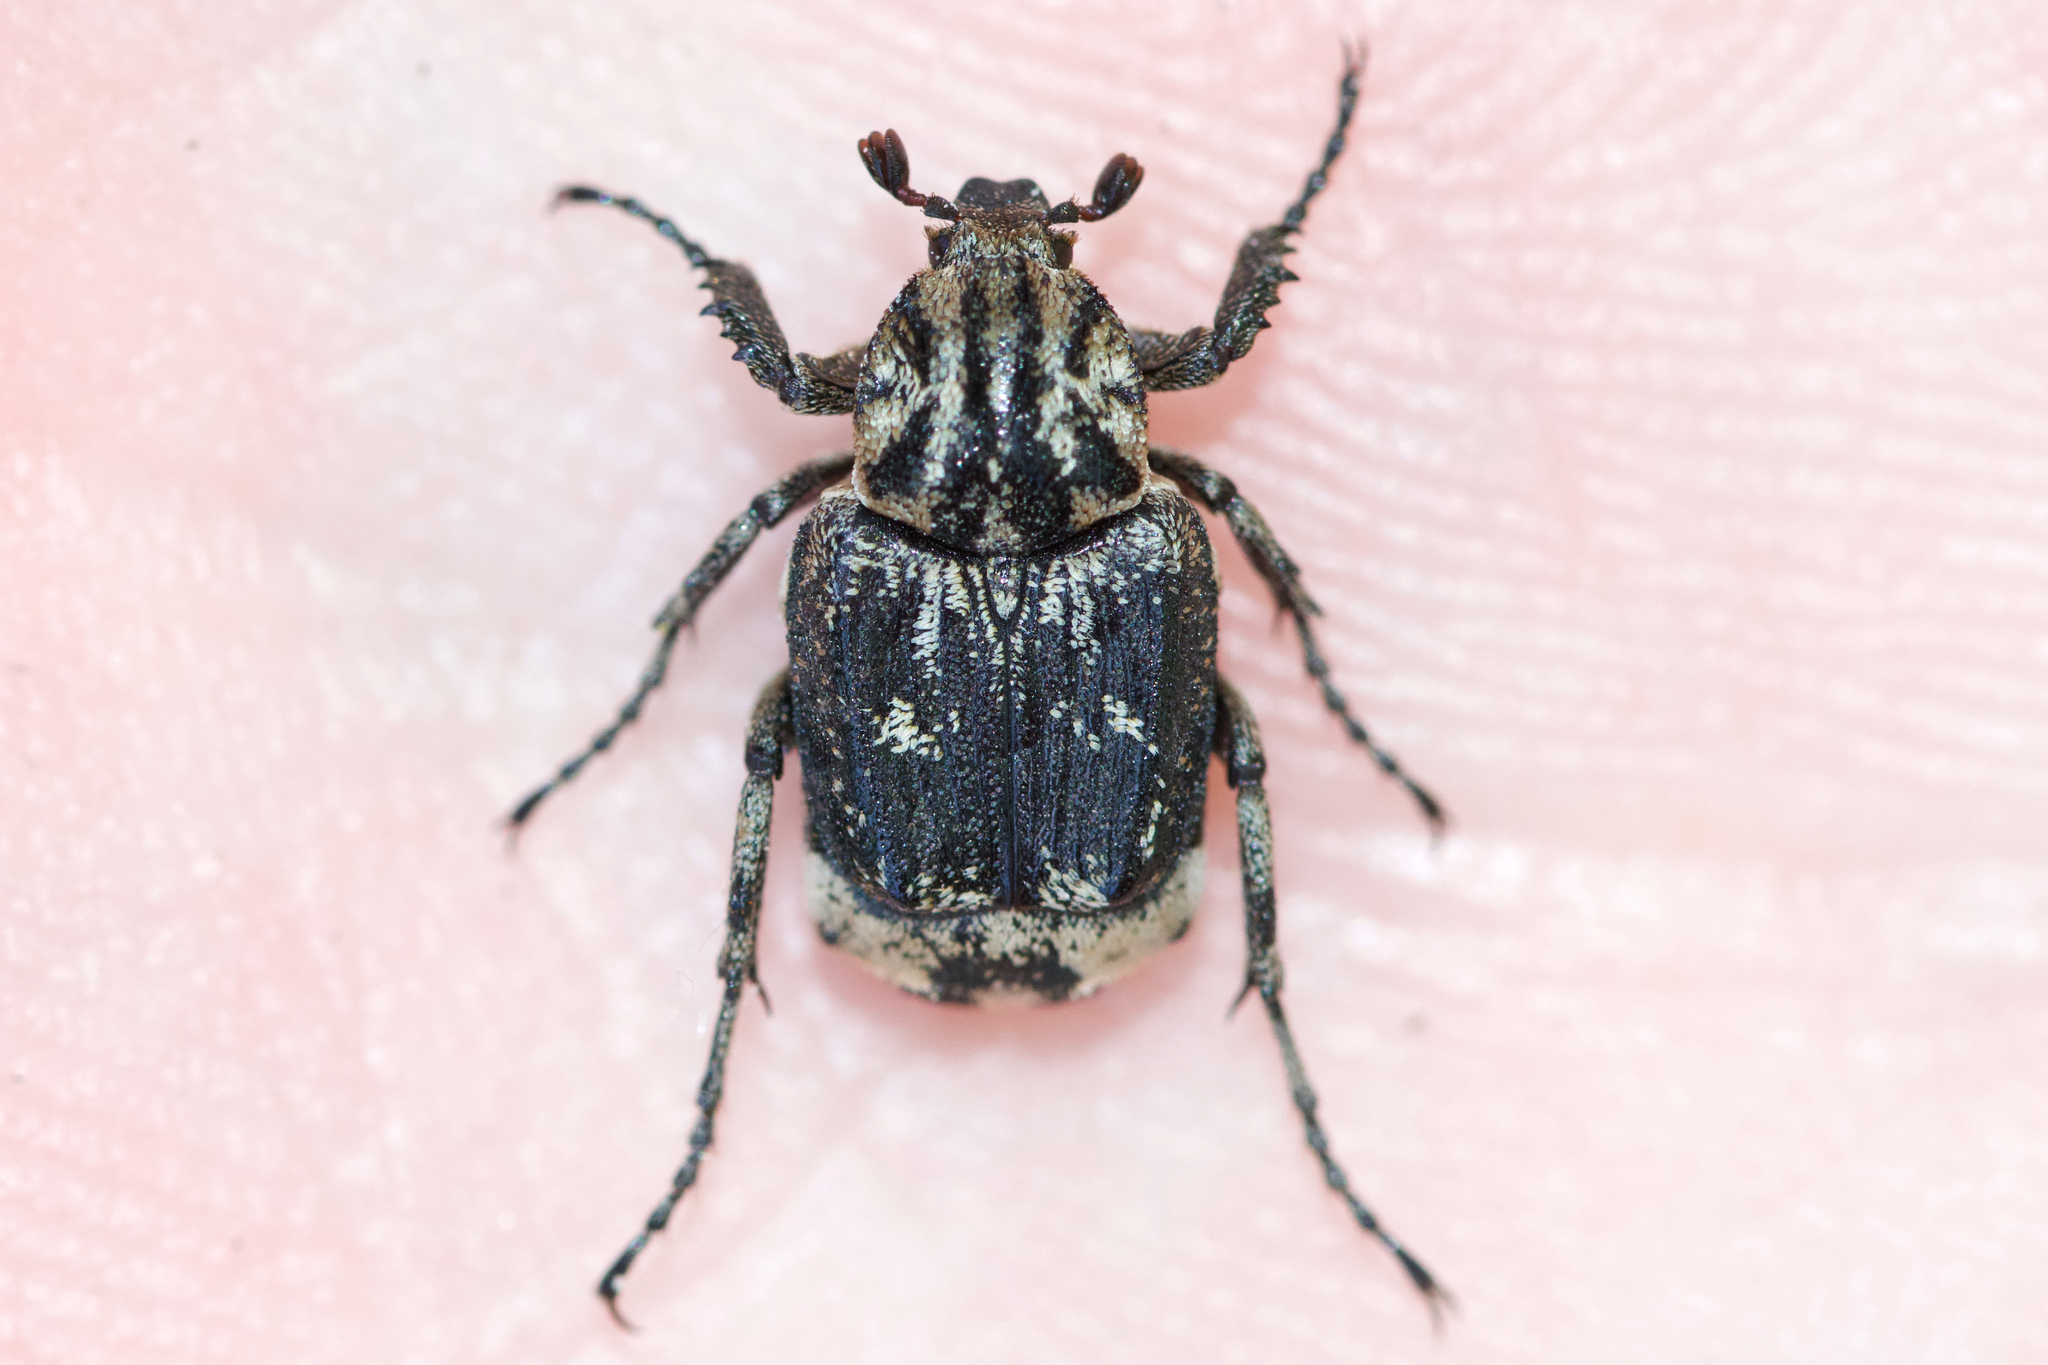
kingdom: Animalia
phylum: Arthropoda
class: Insecta
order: Coleoptera
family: Scarabaeidae
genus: Valgus
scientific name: Valgus hemipterus
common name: Bug flower chafer
